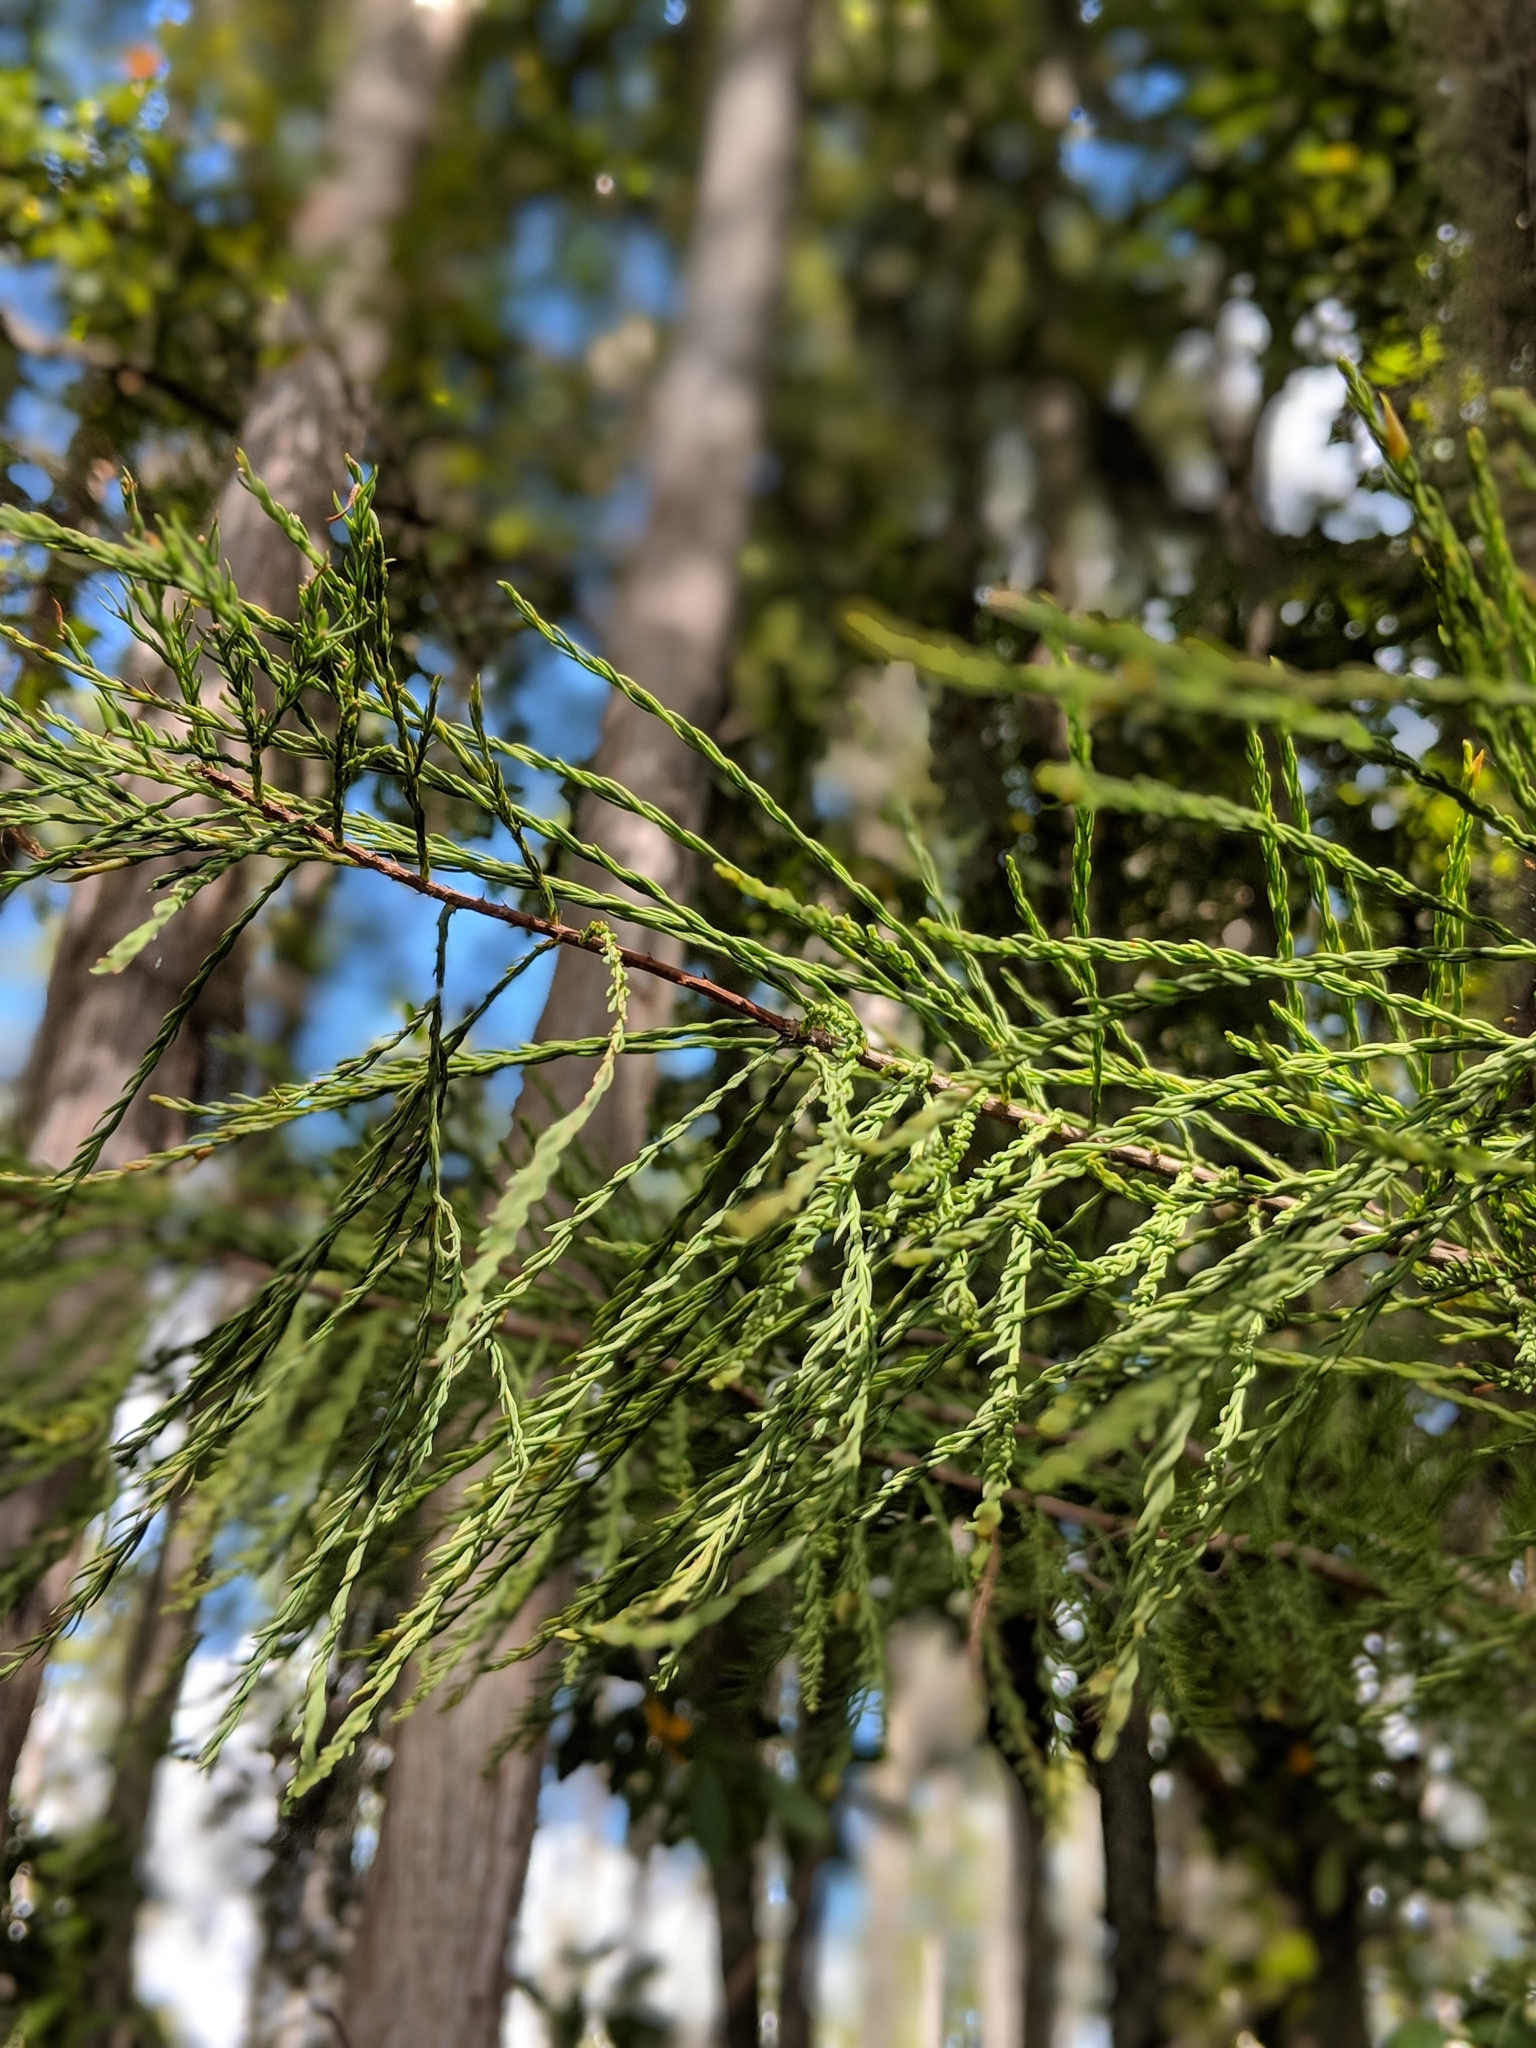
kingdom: Plantae
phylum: Tracheophyta
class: Pinopsida
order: Pinales
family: Cupressaceae
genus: Taxodium
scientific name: Taxodium distichum
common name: Bald cypress
